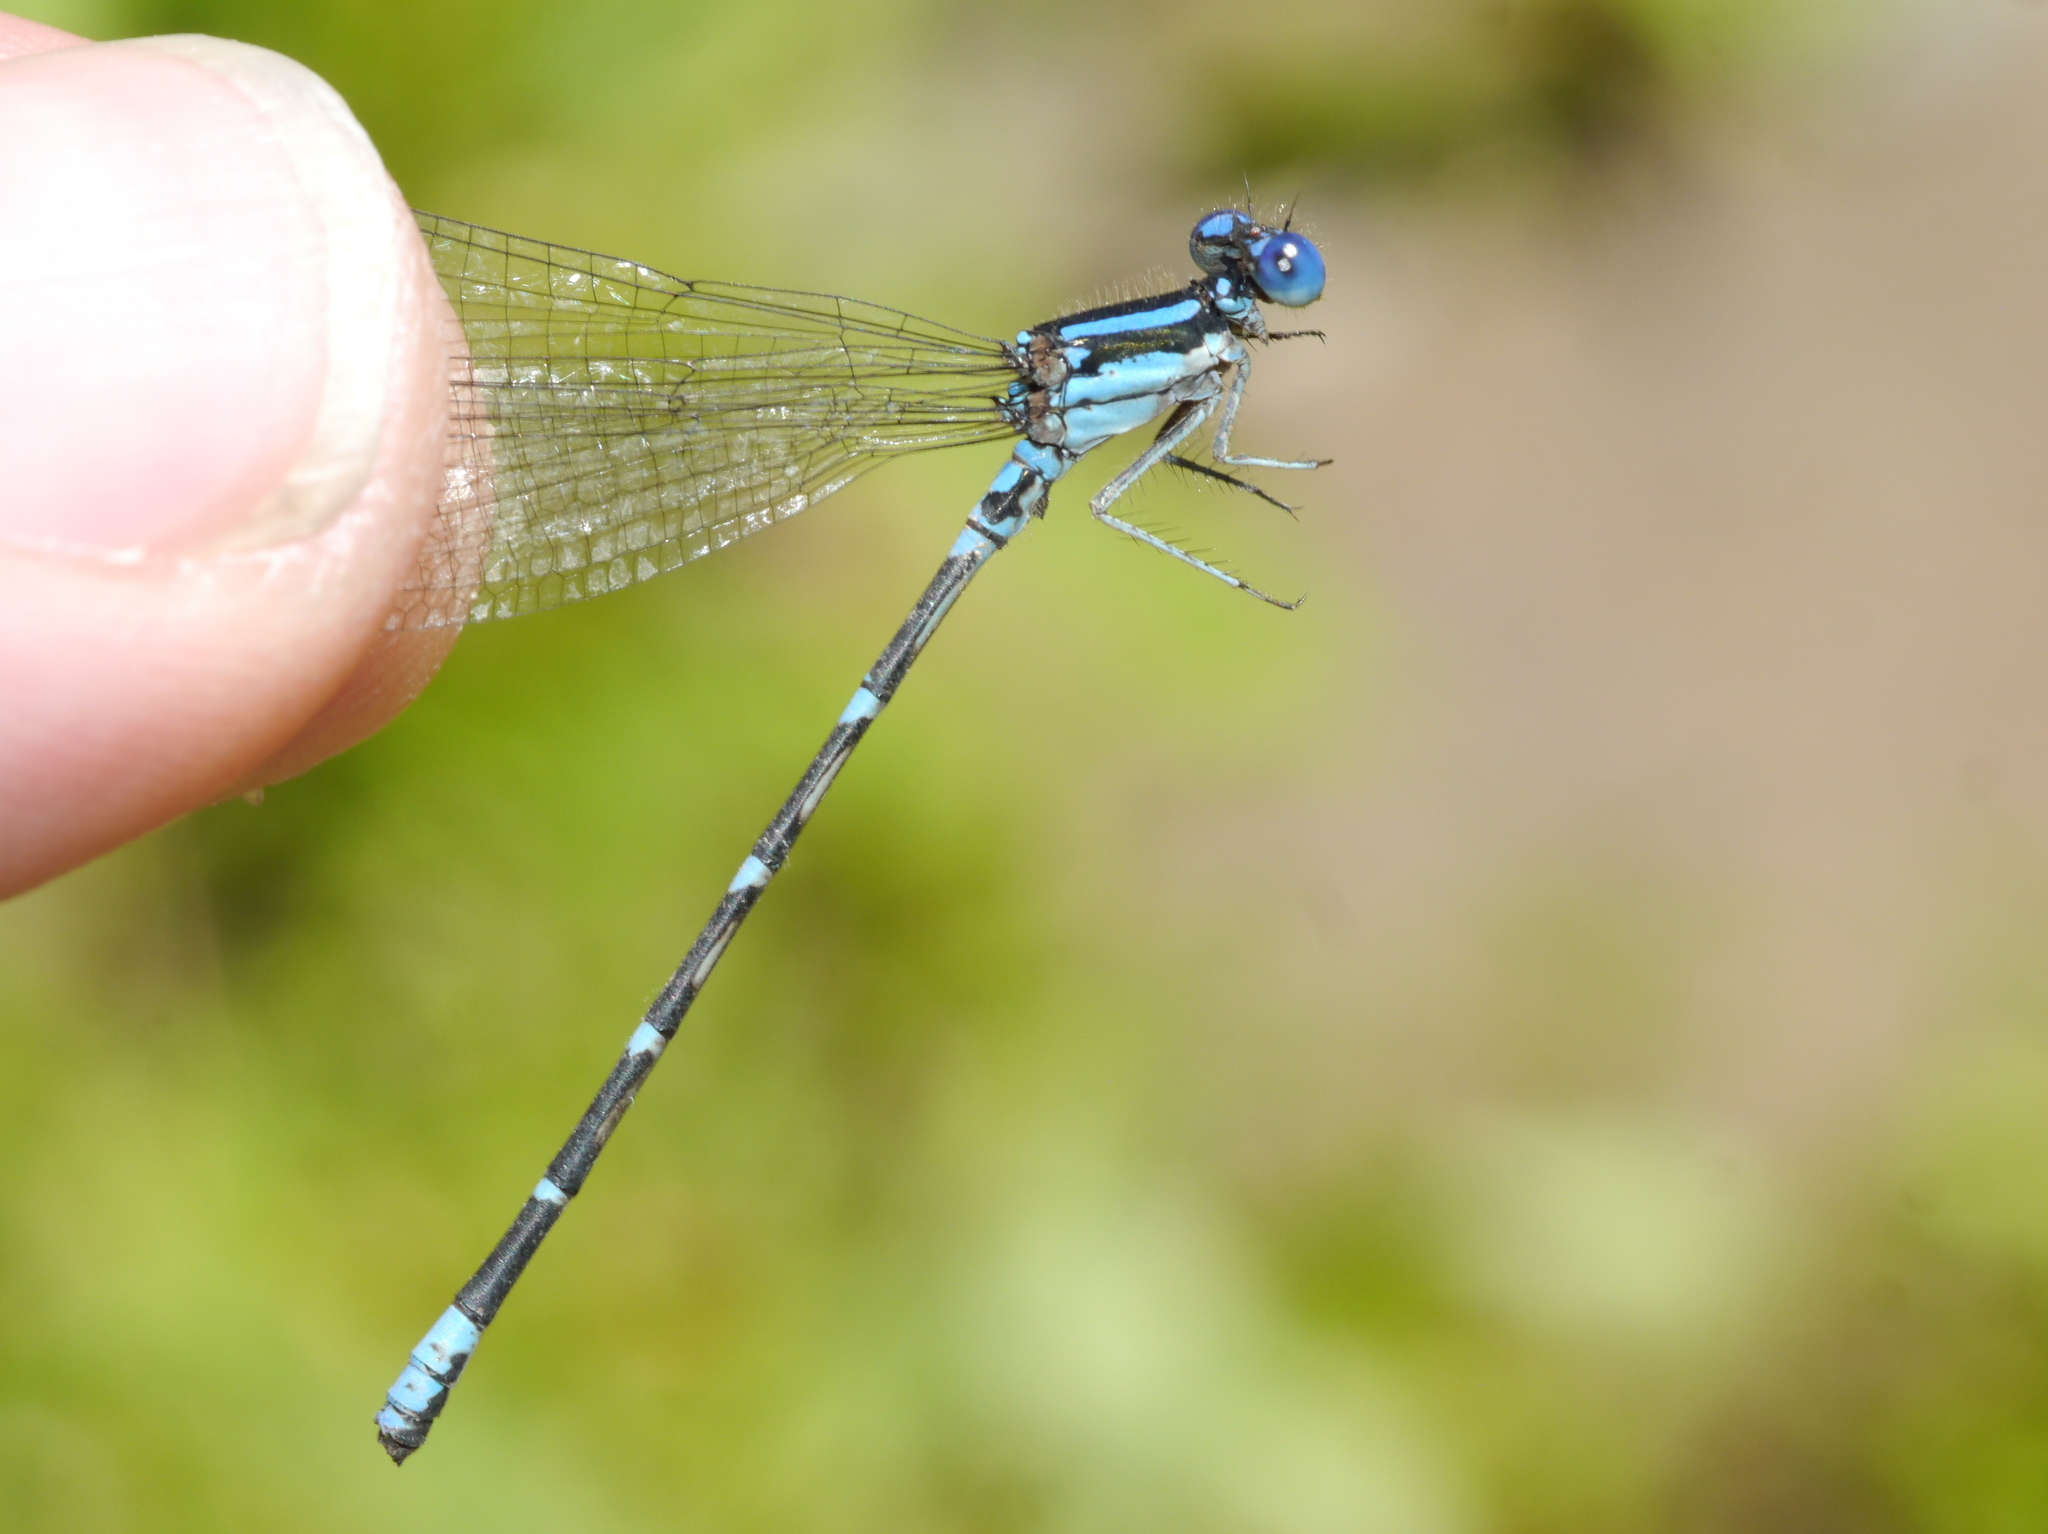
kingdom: Animalia
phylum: Arthropoda
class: Insecta
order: Odonata
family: Coenagrionidae
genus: Argia
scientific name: Argia sedula
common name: Blue-ringed dancer
